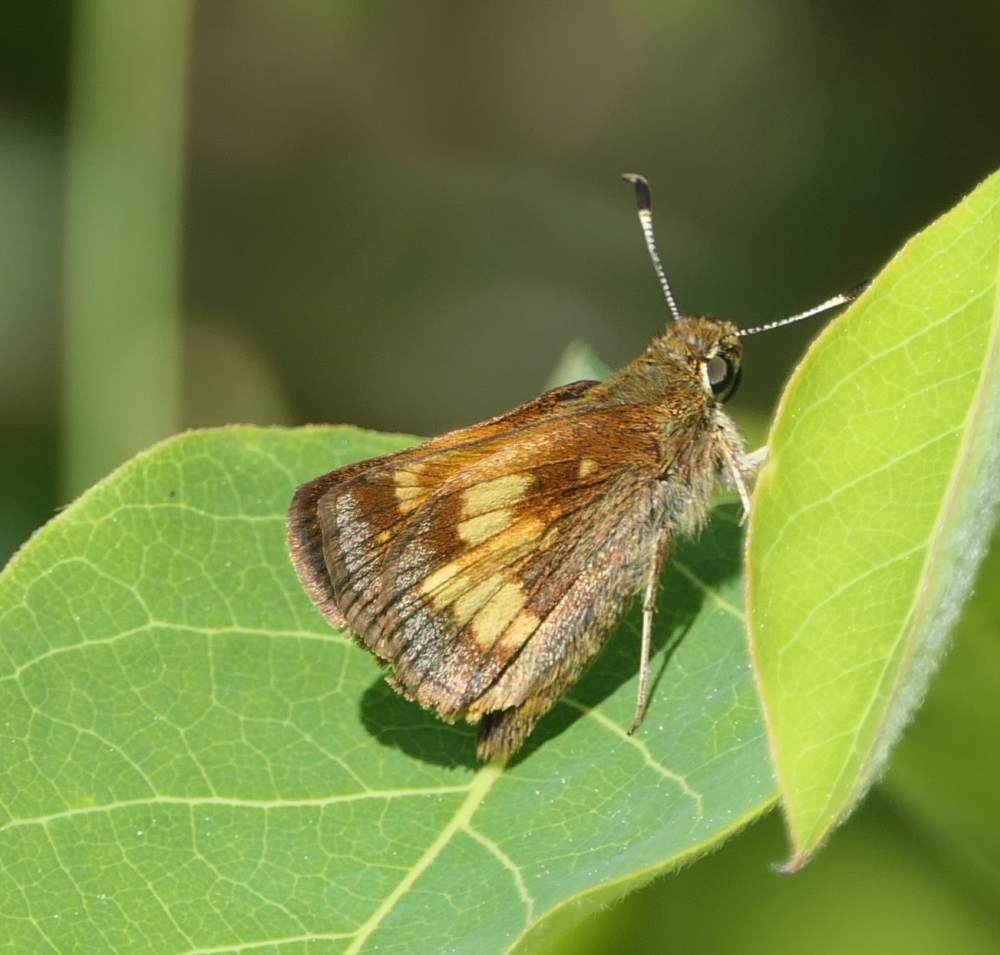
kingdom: Animalia
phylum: Arthropoda
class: Insecta
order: Lepidoptera
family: Hesperiidae
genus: Lon
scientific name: Lon hobomok
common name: Hobomok skipper
